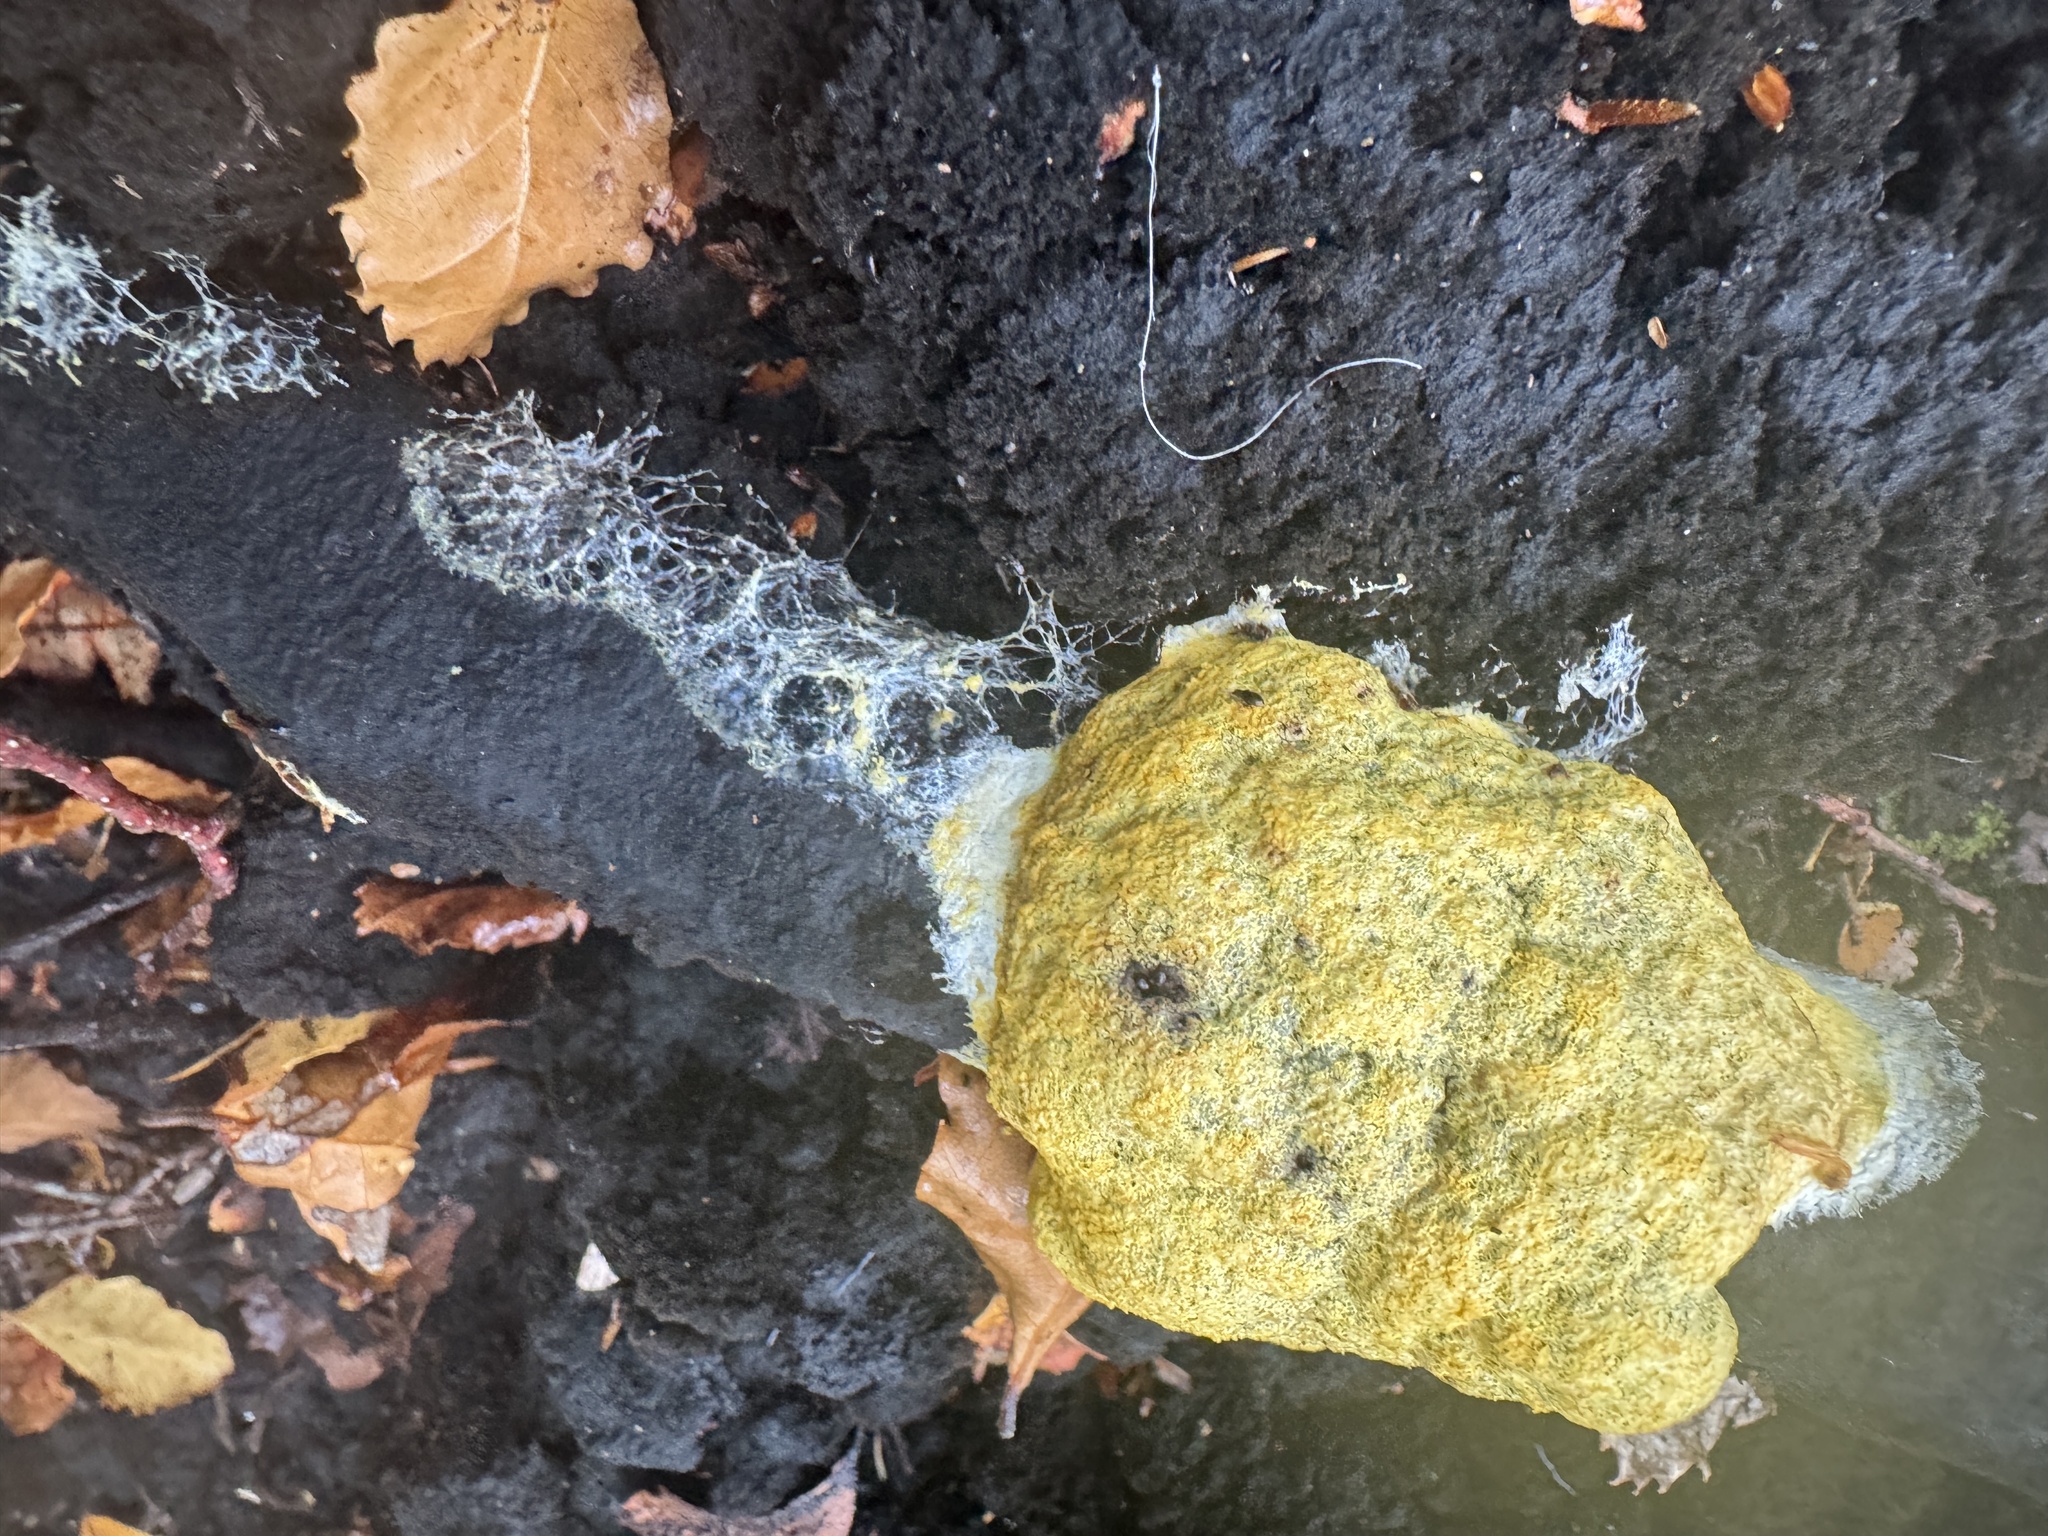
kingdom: Protozoa
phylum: Mycetozoa
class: Myxomycetes
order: Physarales
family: Physaraceae
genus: Fuligo
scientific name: Fuligo septica
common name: Dog vomit slime mold
